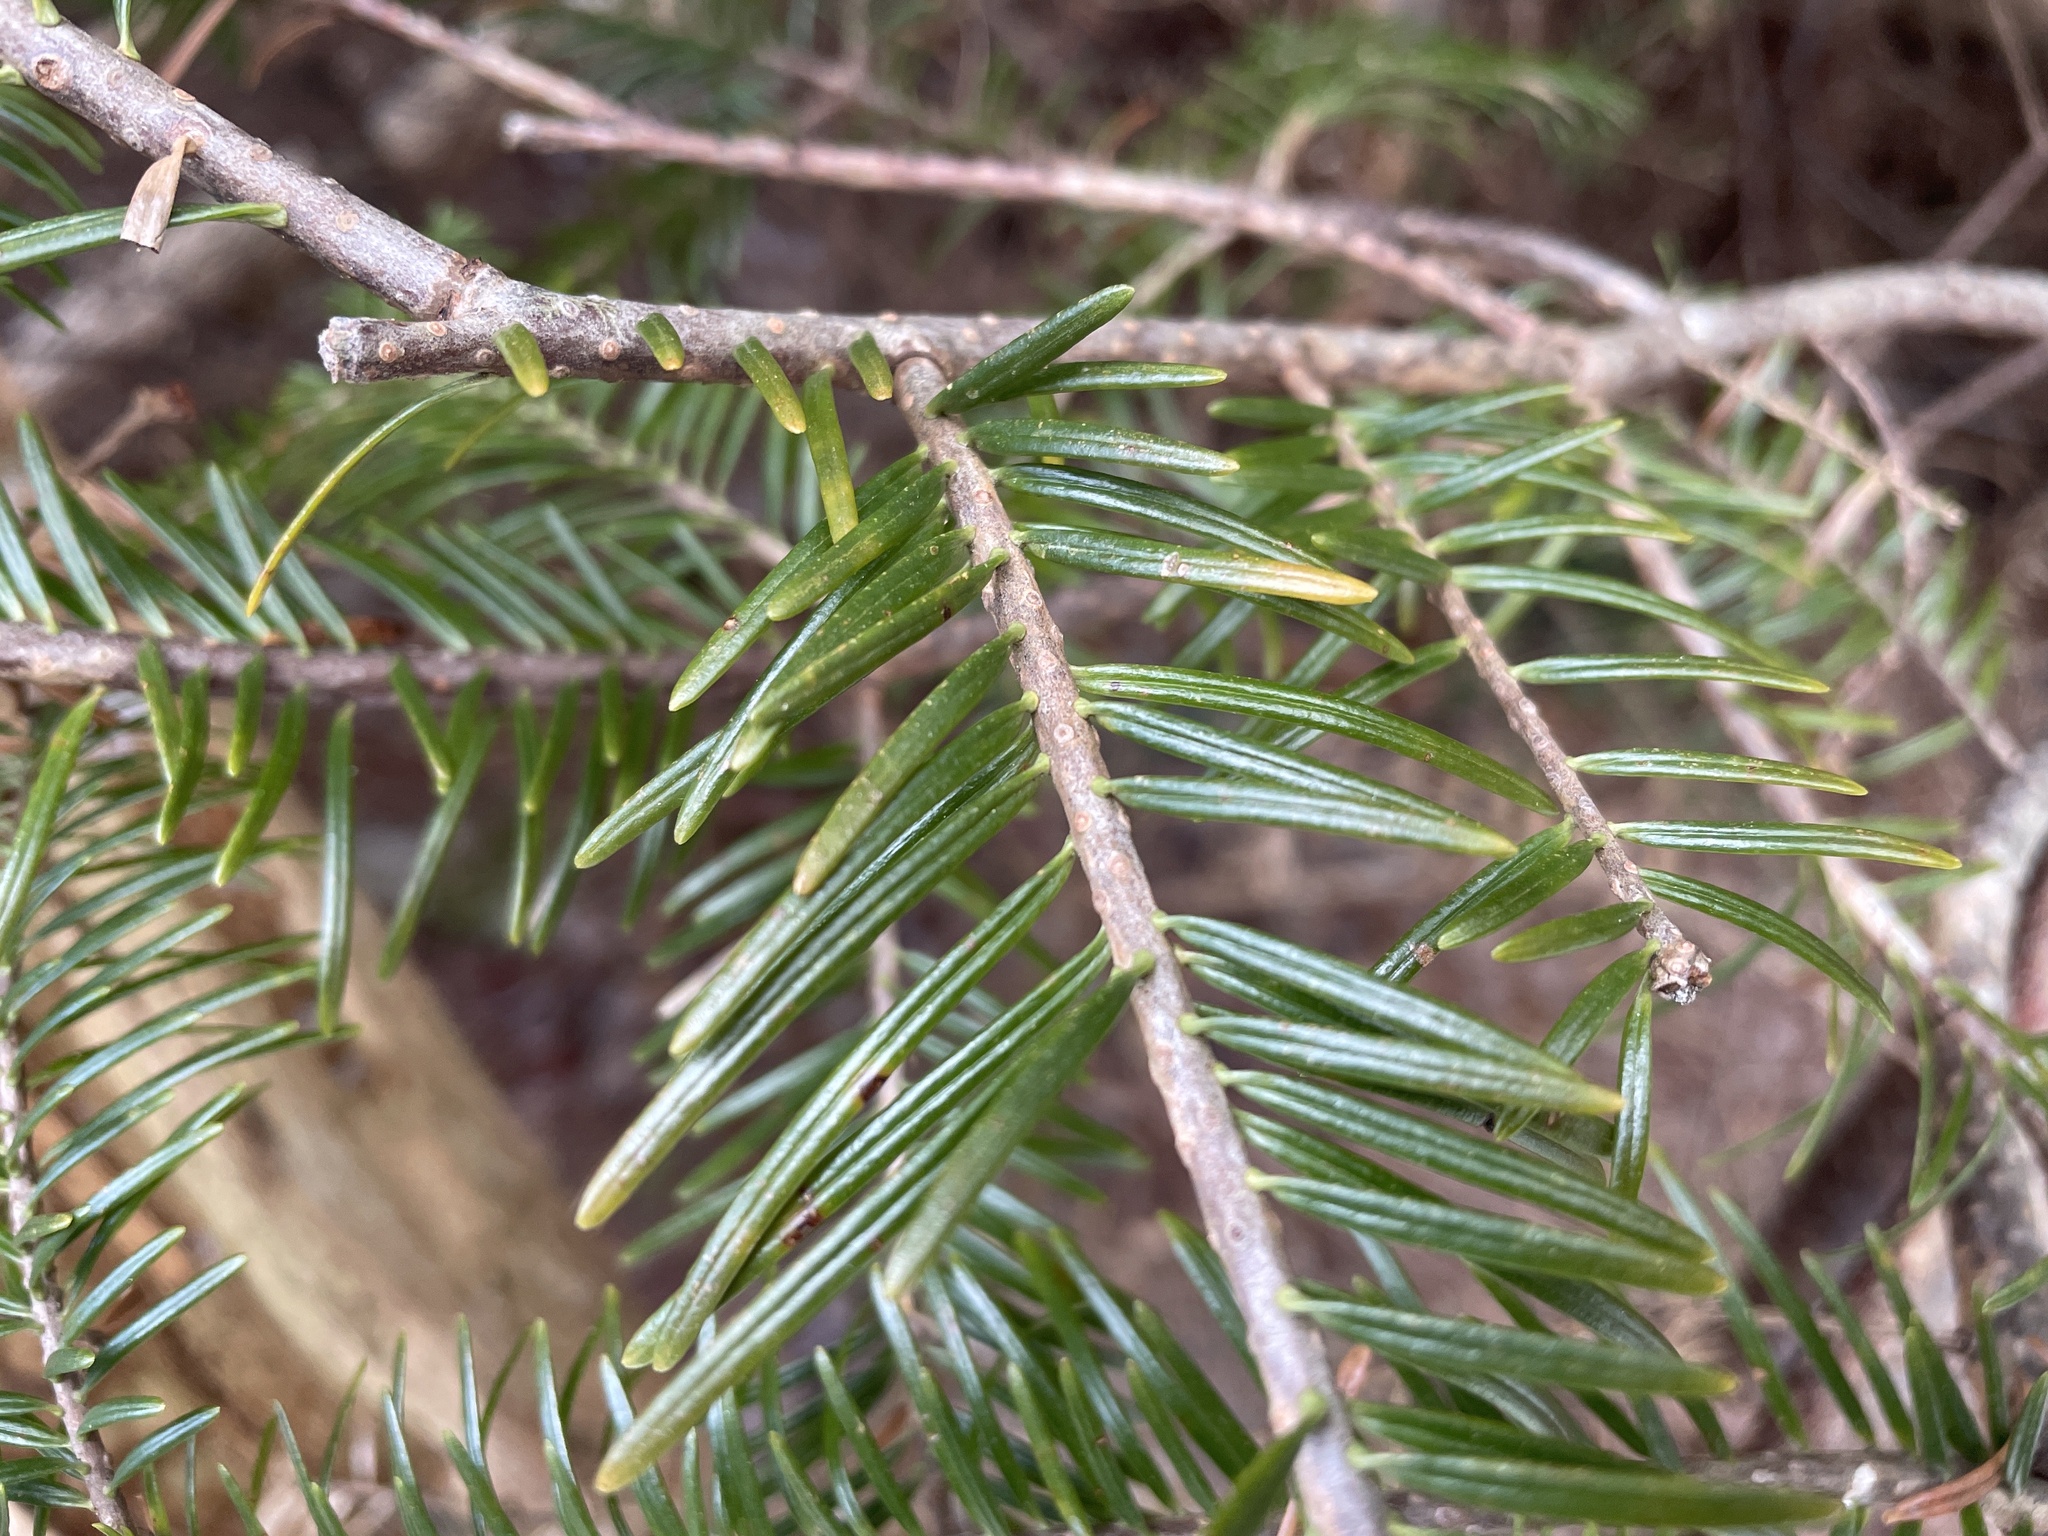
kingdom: Plantae
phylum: Tracheophyta
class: Pinopsida
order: Pinales
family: Pinaceae
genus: Abies
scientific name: Abies balsamea
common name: Balsam fir
